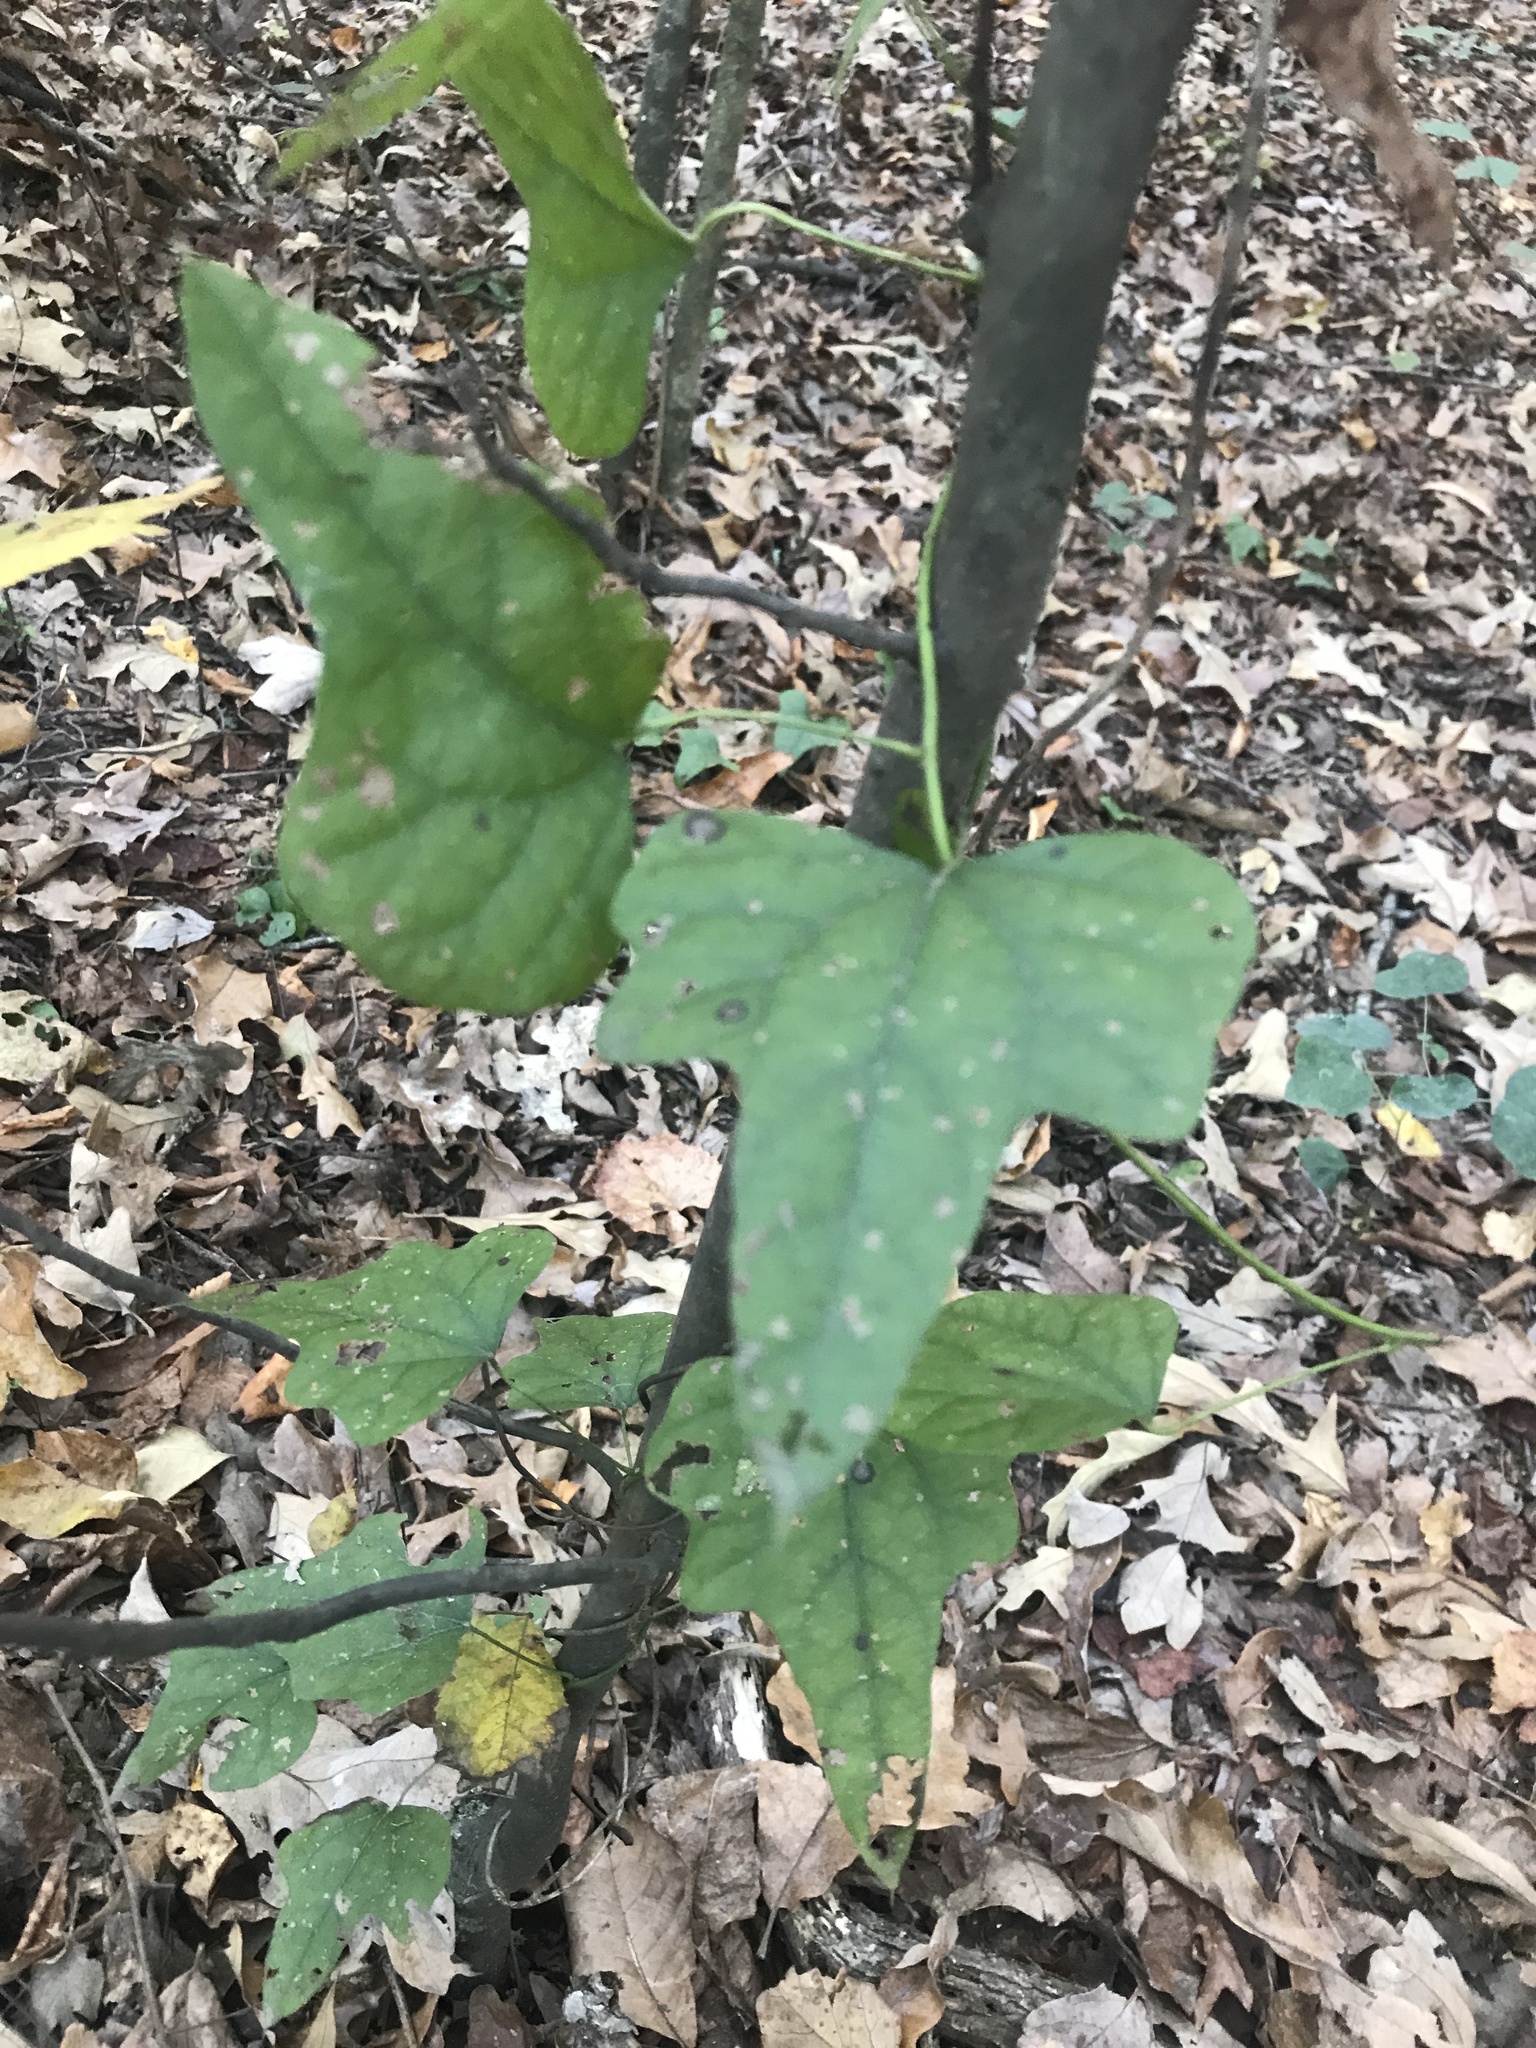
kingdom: Plantae
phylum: Tracheophyta
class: Magnoliopsida
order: Ranunculales
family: Menispermaceae
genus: Cocculus
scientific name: Cocculus carolinus
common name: Carolina moonseed
